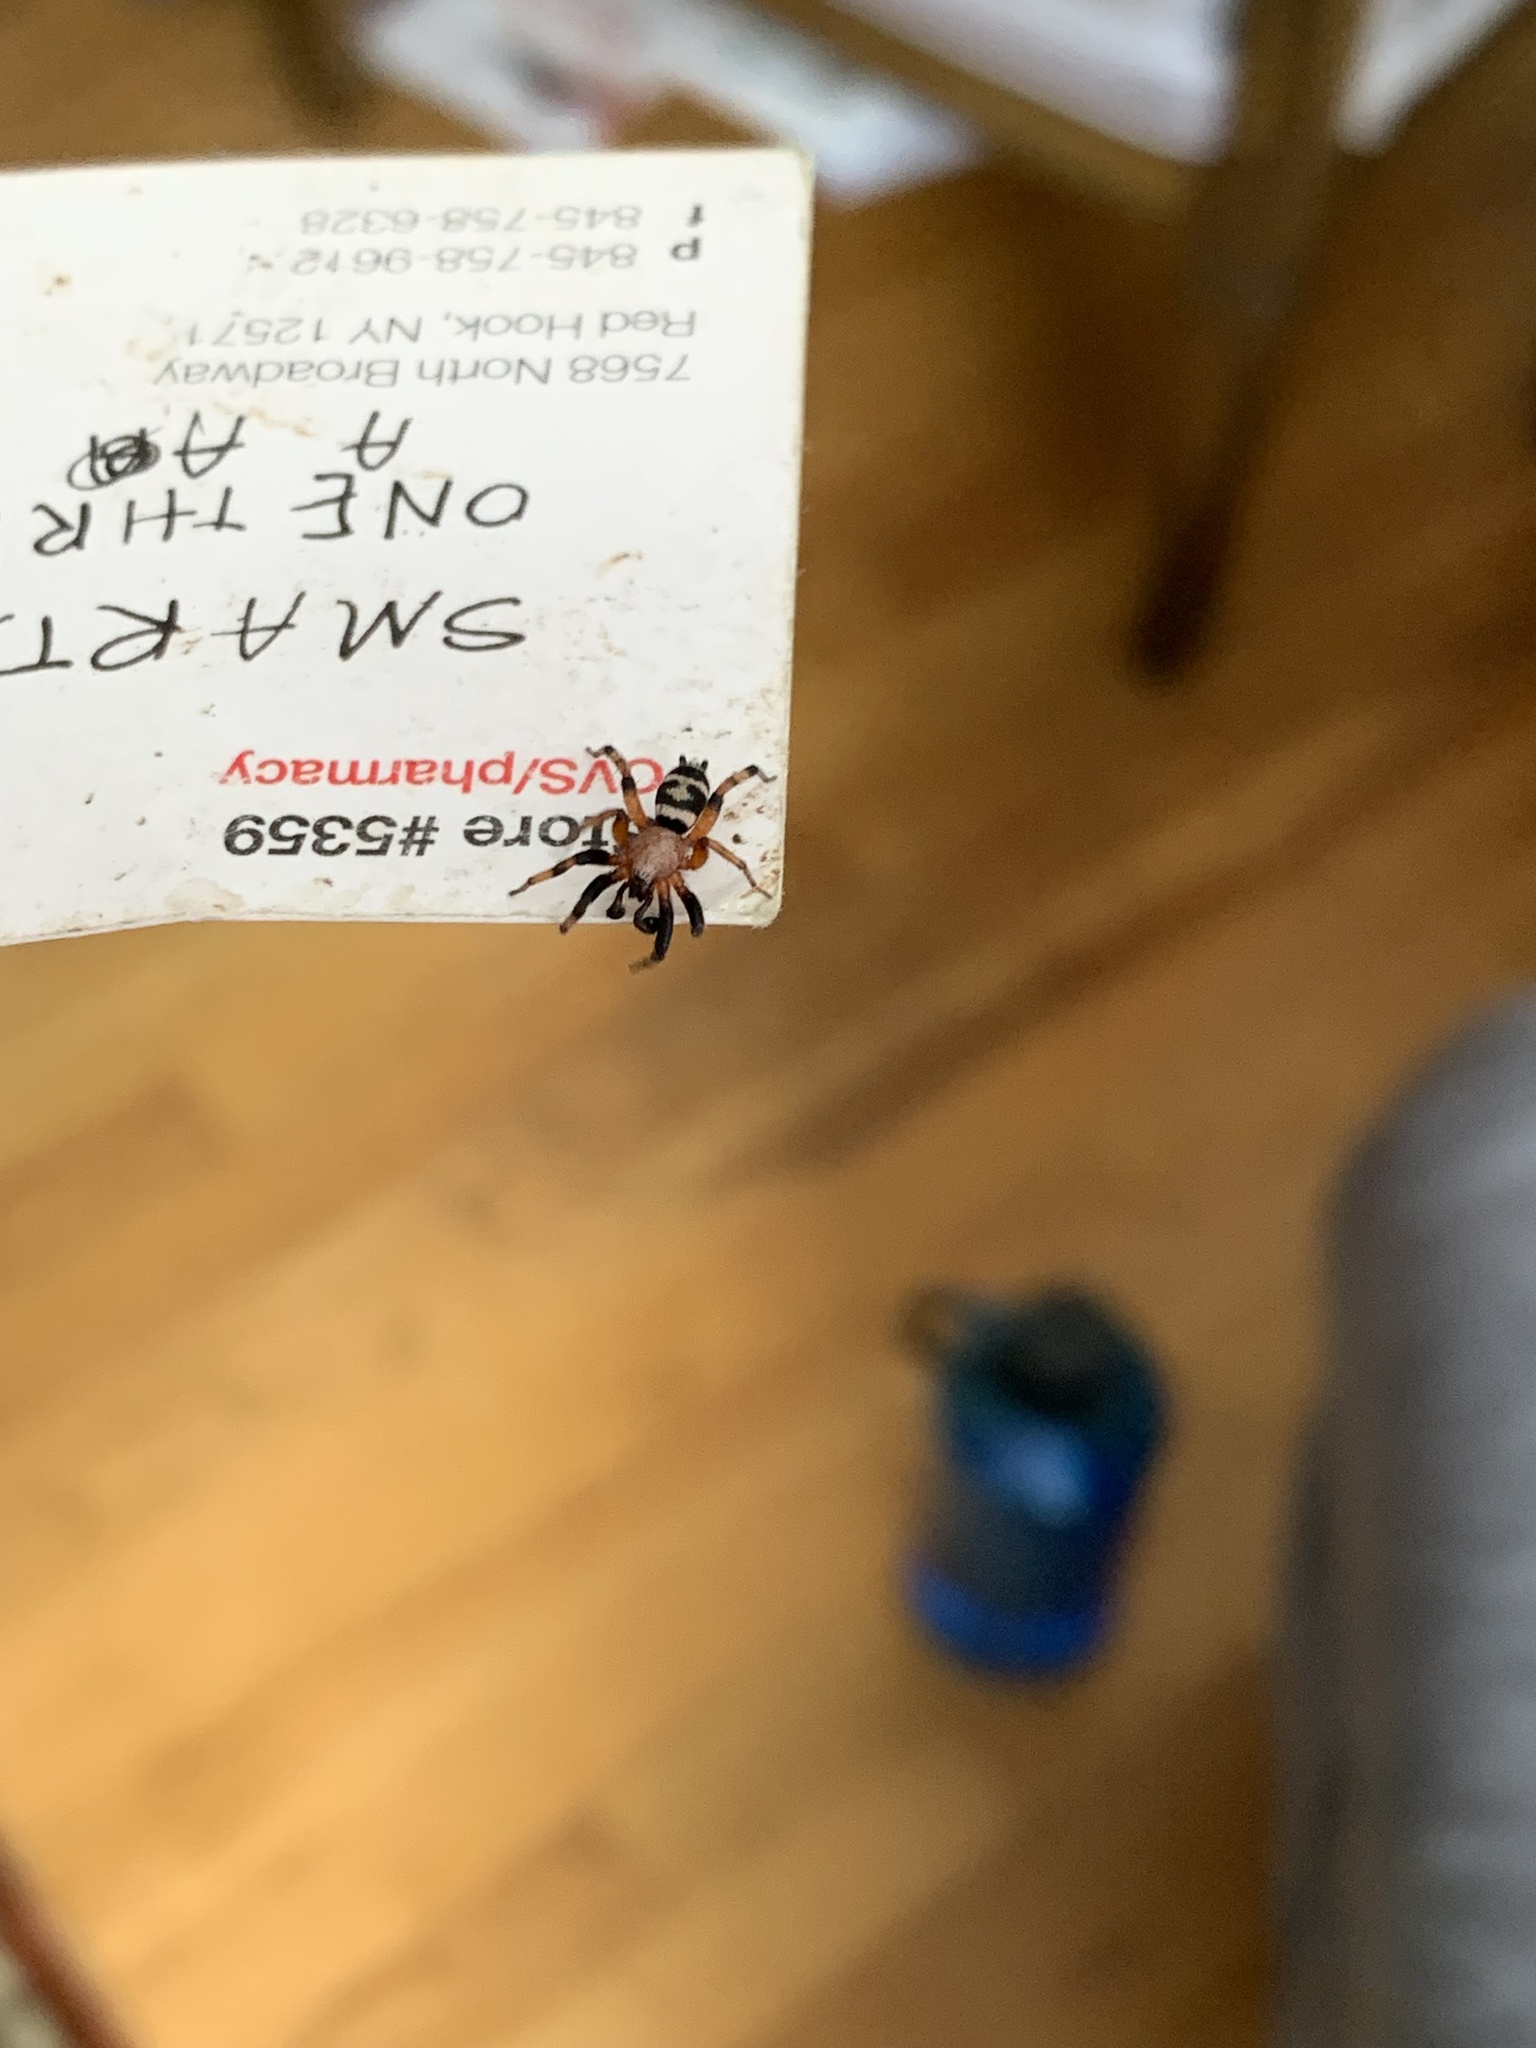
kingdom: Animalia
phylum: Arthropoda
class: Arachnida
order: Araneae
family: Gnaphosidae
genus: Sergiolus
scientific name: Sergiolus capulatus
